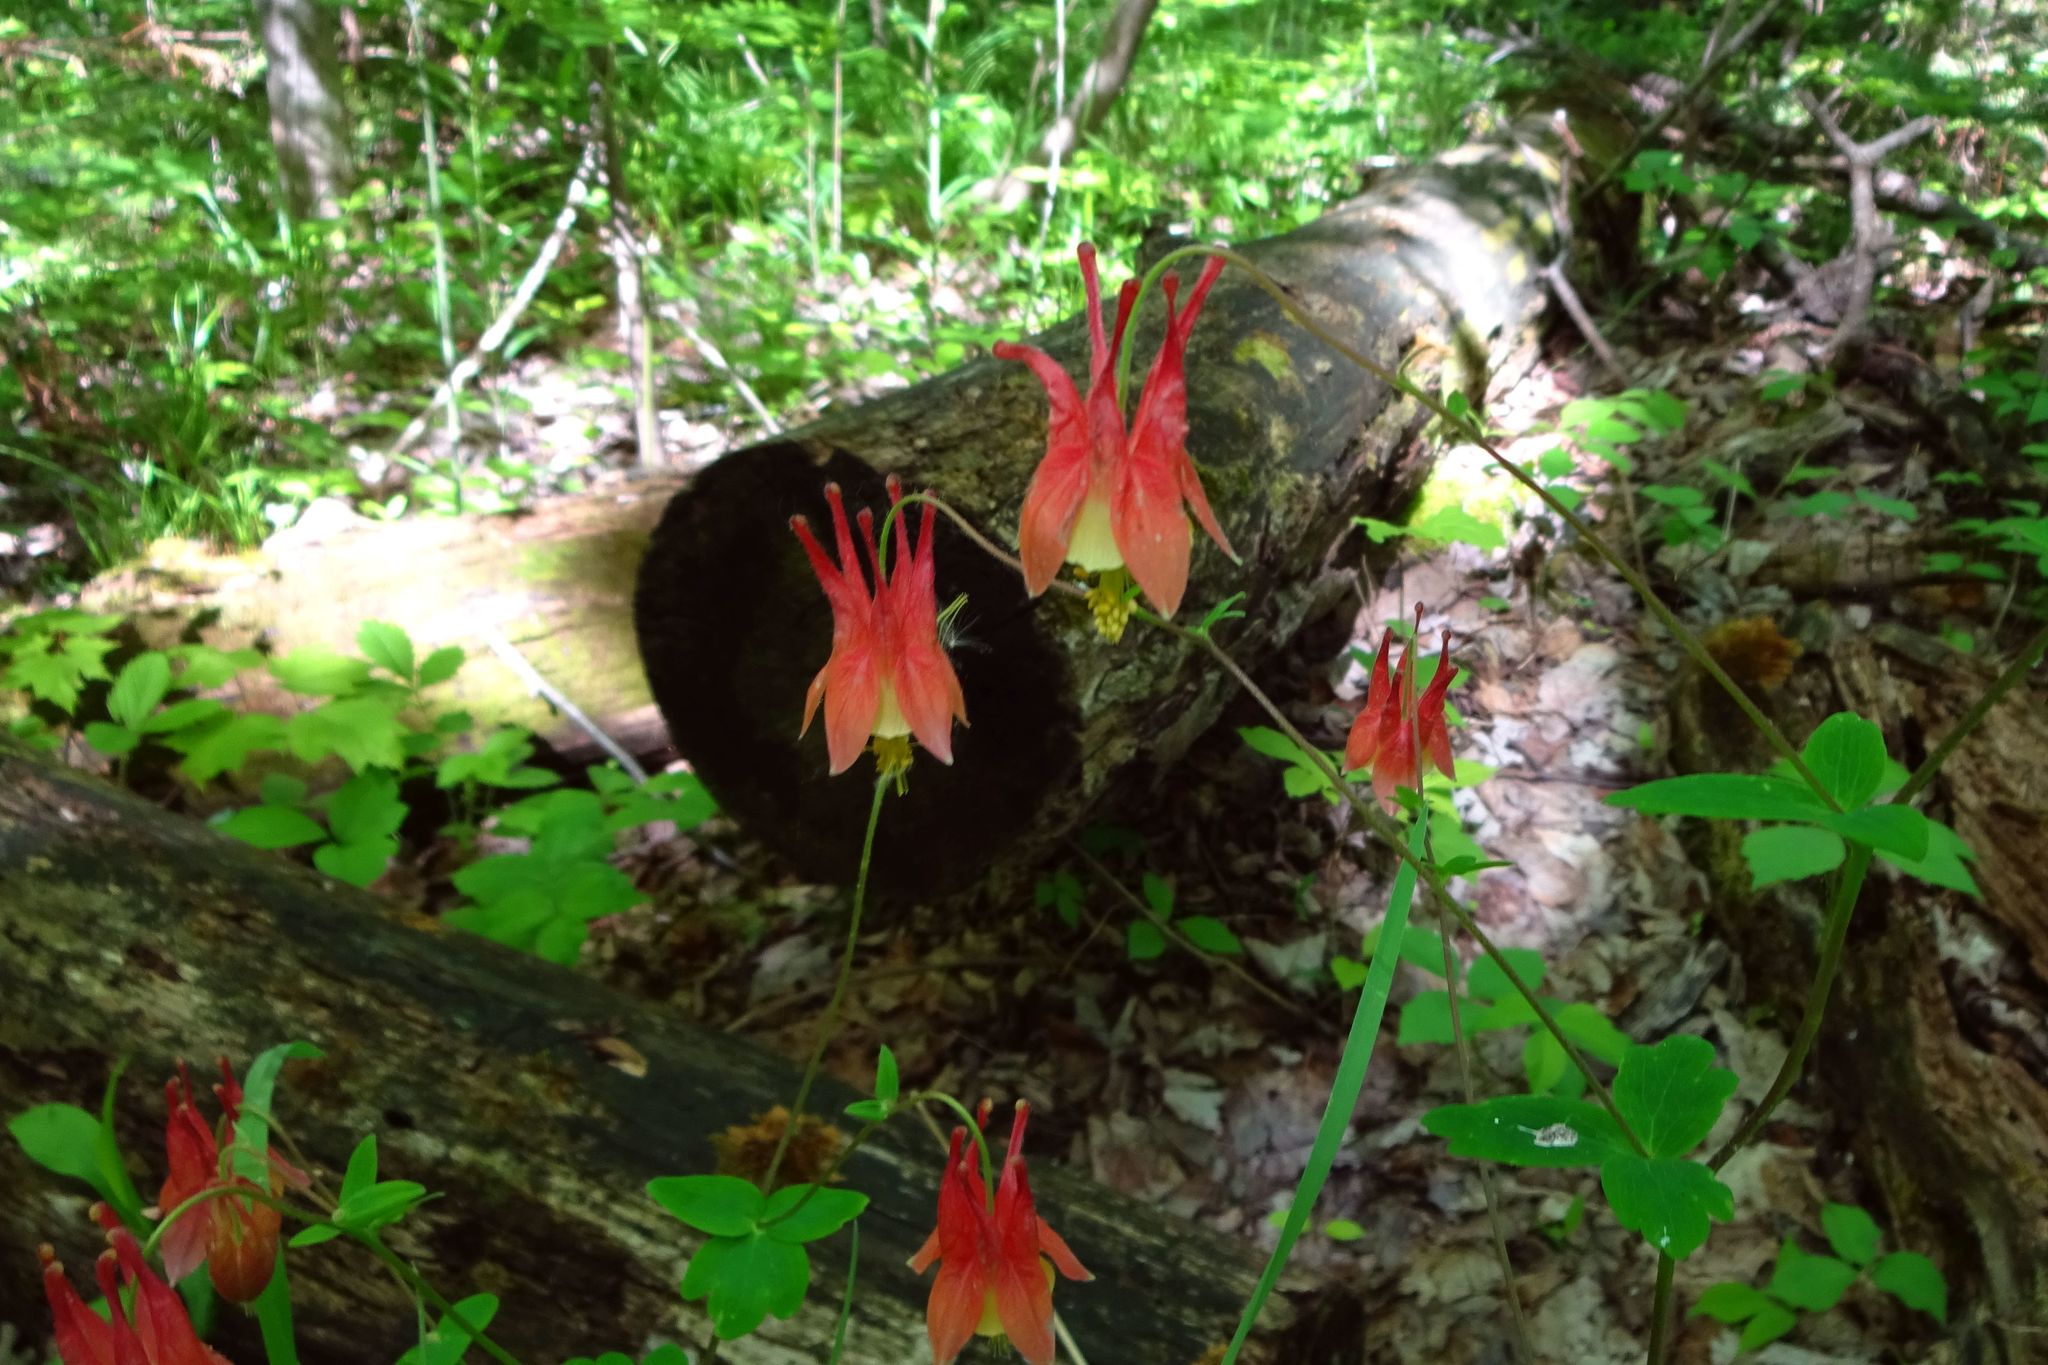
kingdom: Plantae
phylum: Tracheophyta
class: Magnoliopsida
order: Ranunculales
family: Ranunculaceae
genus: Aquilegia
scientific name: Aquilegia canadensis
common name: American columbine
